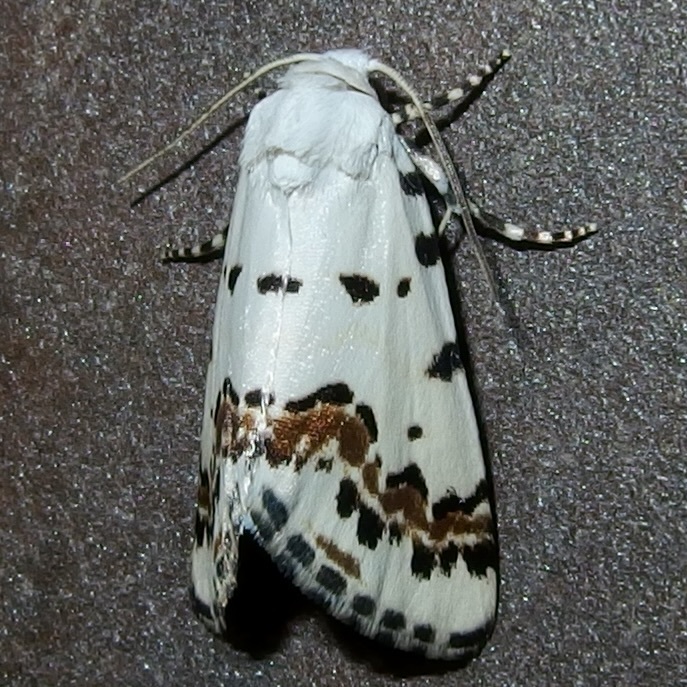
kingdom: Animalia
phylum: Arthropoda
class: Insecta
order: Lepidoptera
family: Noctuidae
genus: Grotella
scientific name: Grotella tricolor
